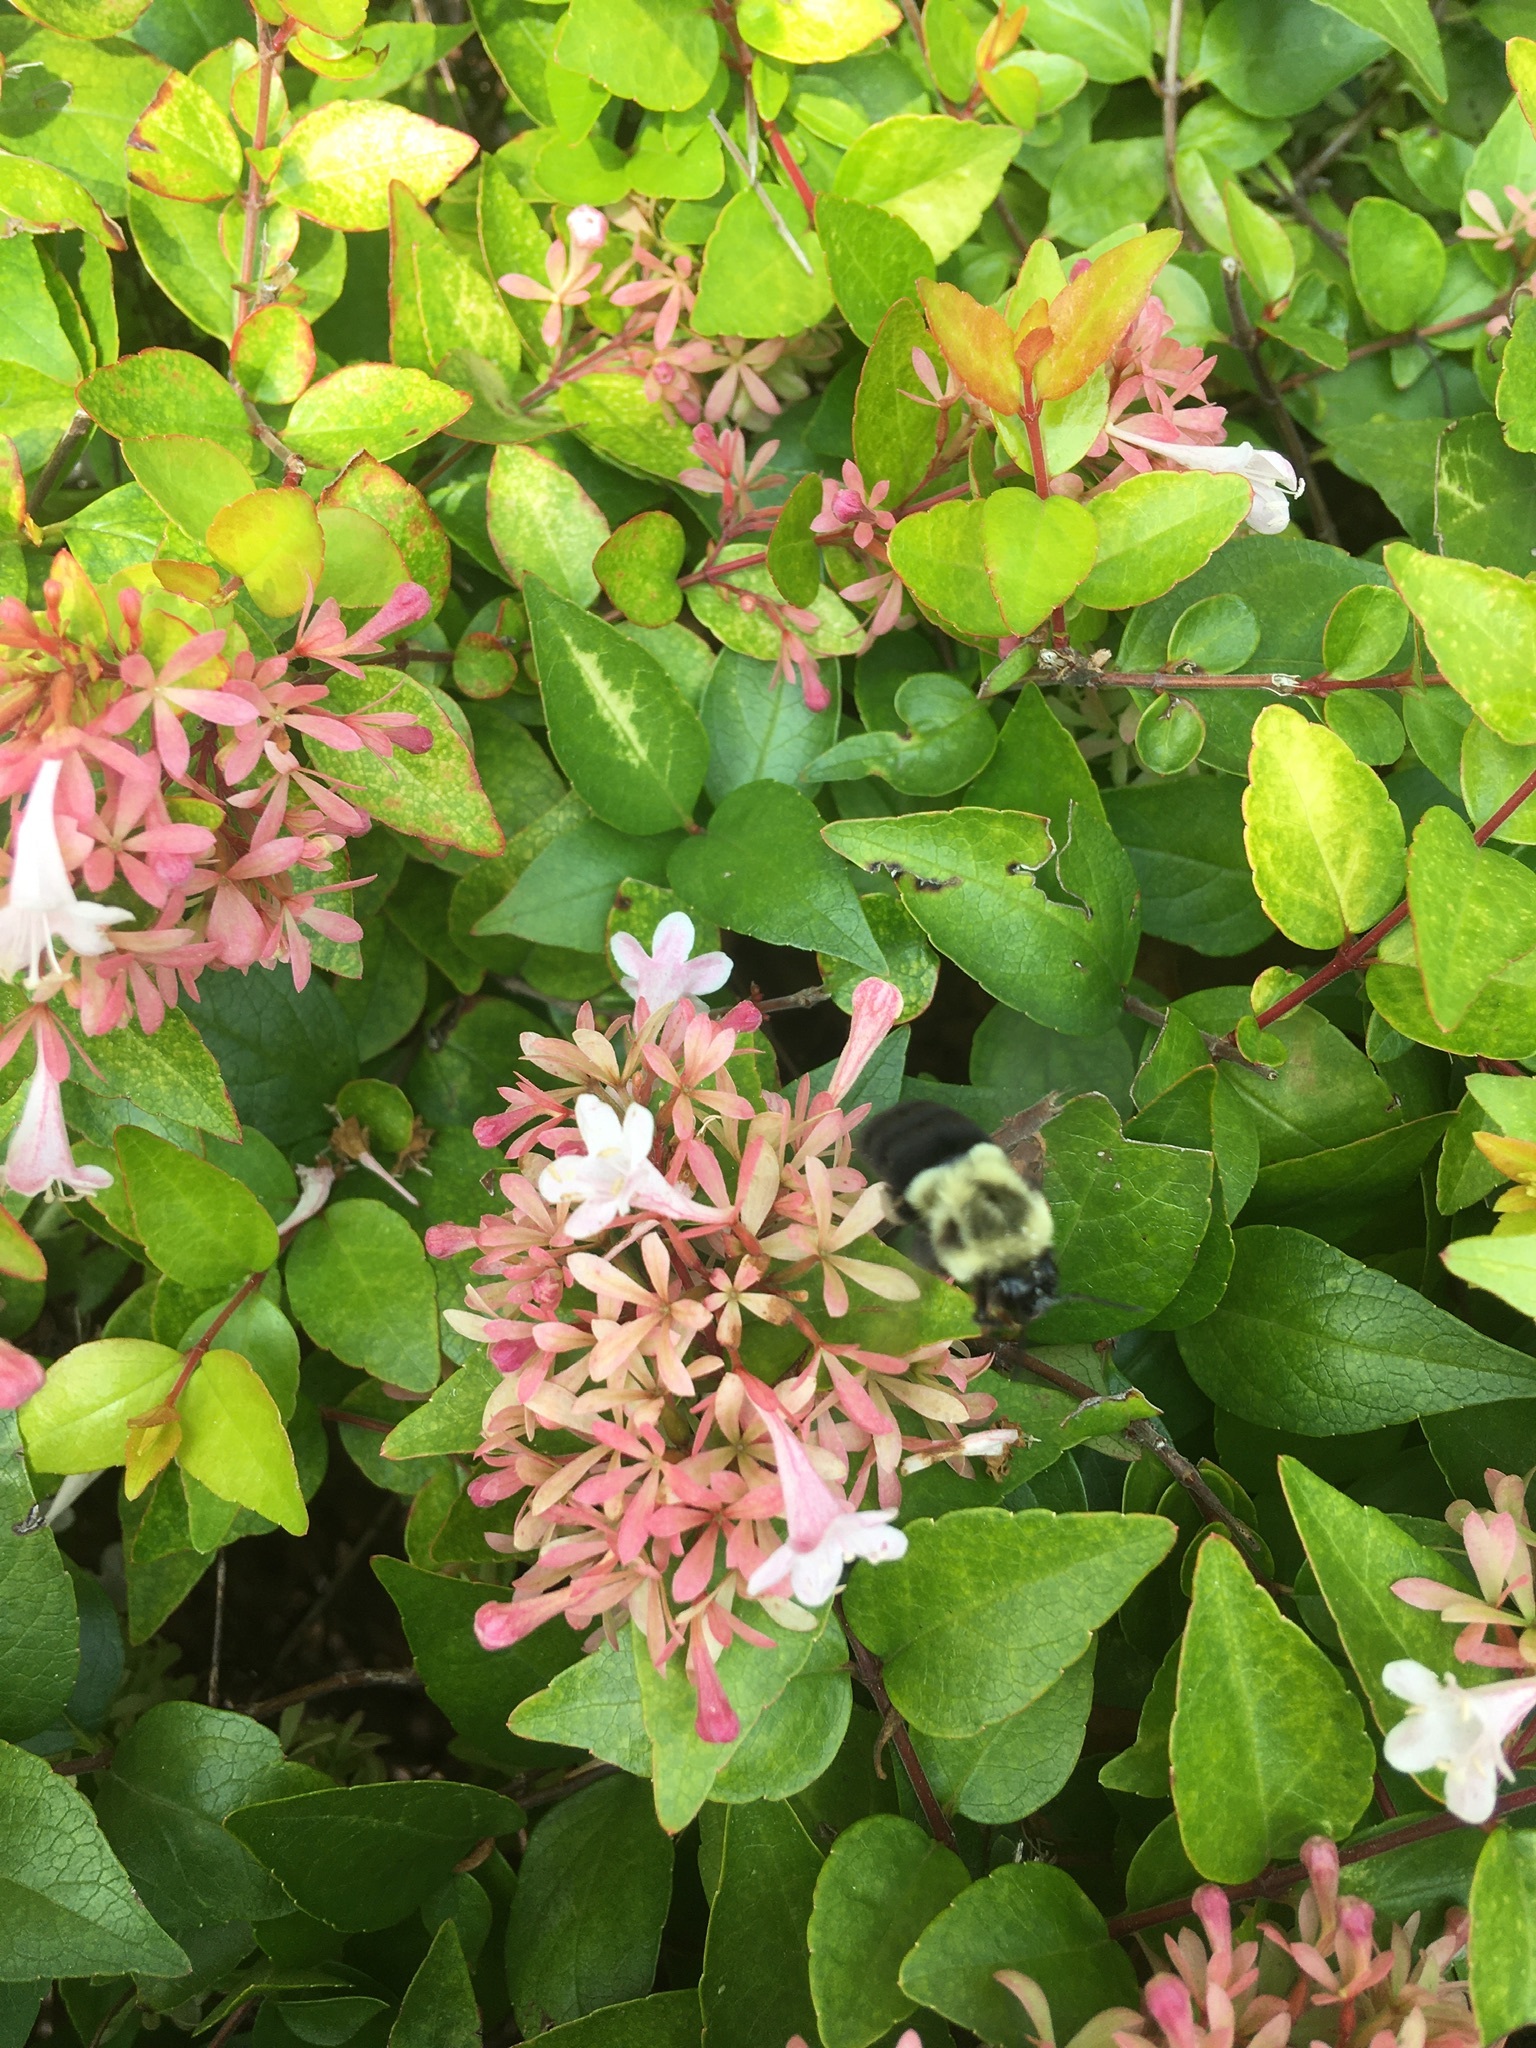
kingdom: Animalia
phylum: Arthropoda
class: Insecta
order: Hymenoptera
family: Apidae
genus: Bombus
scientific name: Bombus impatiens
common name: Common eastern bumble bee
